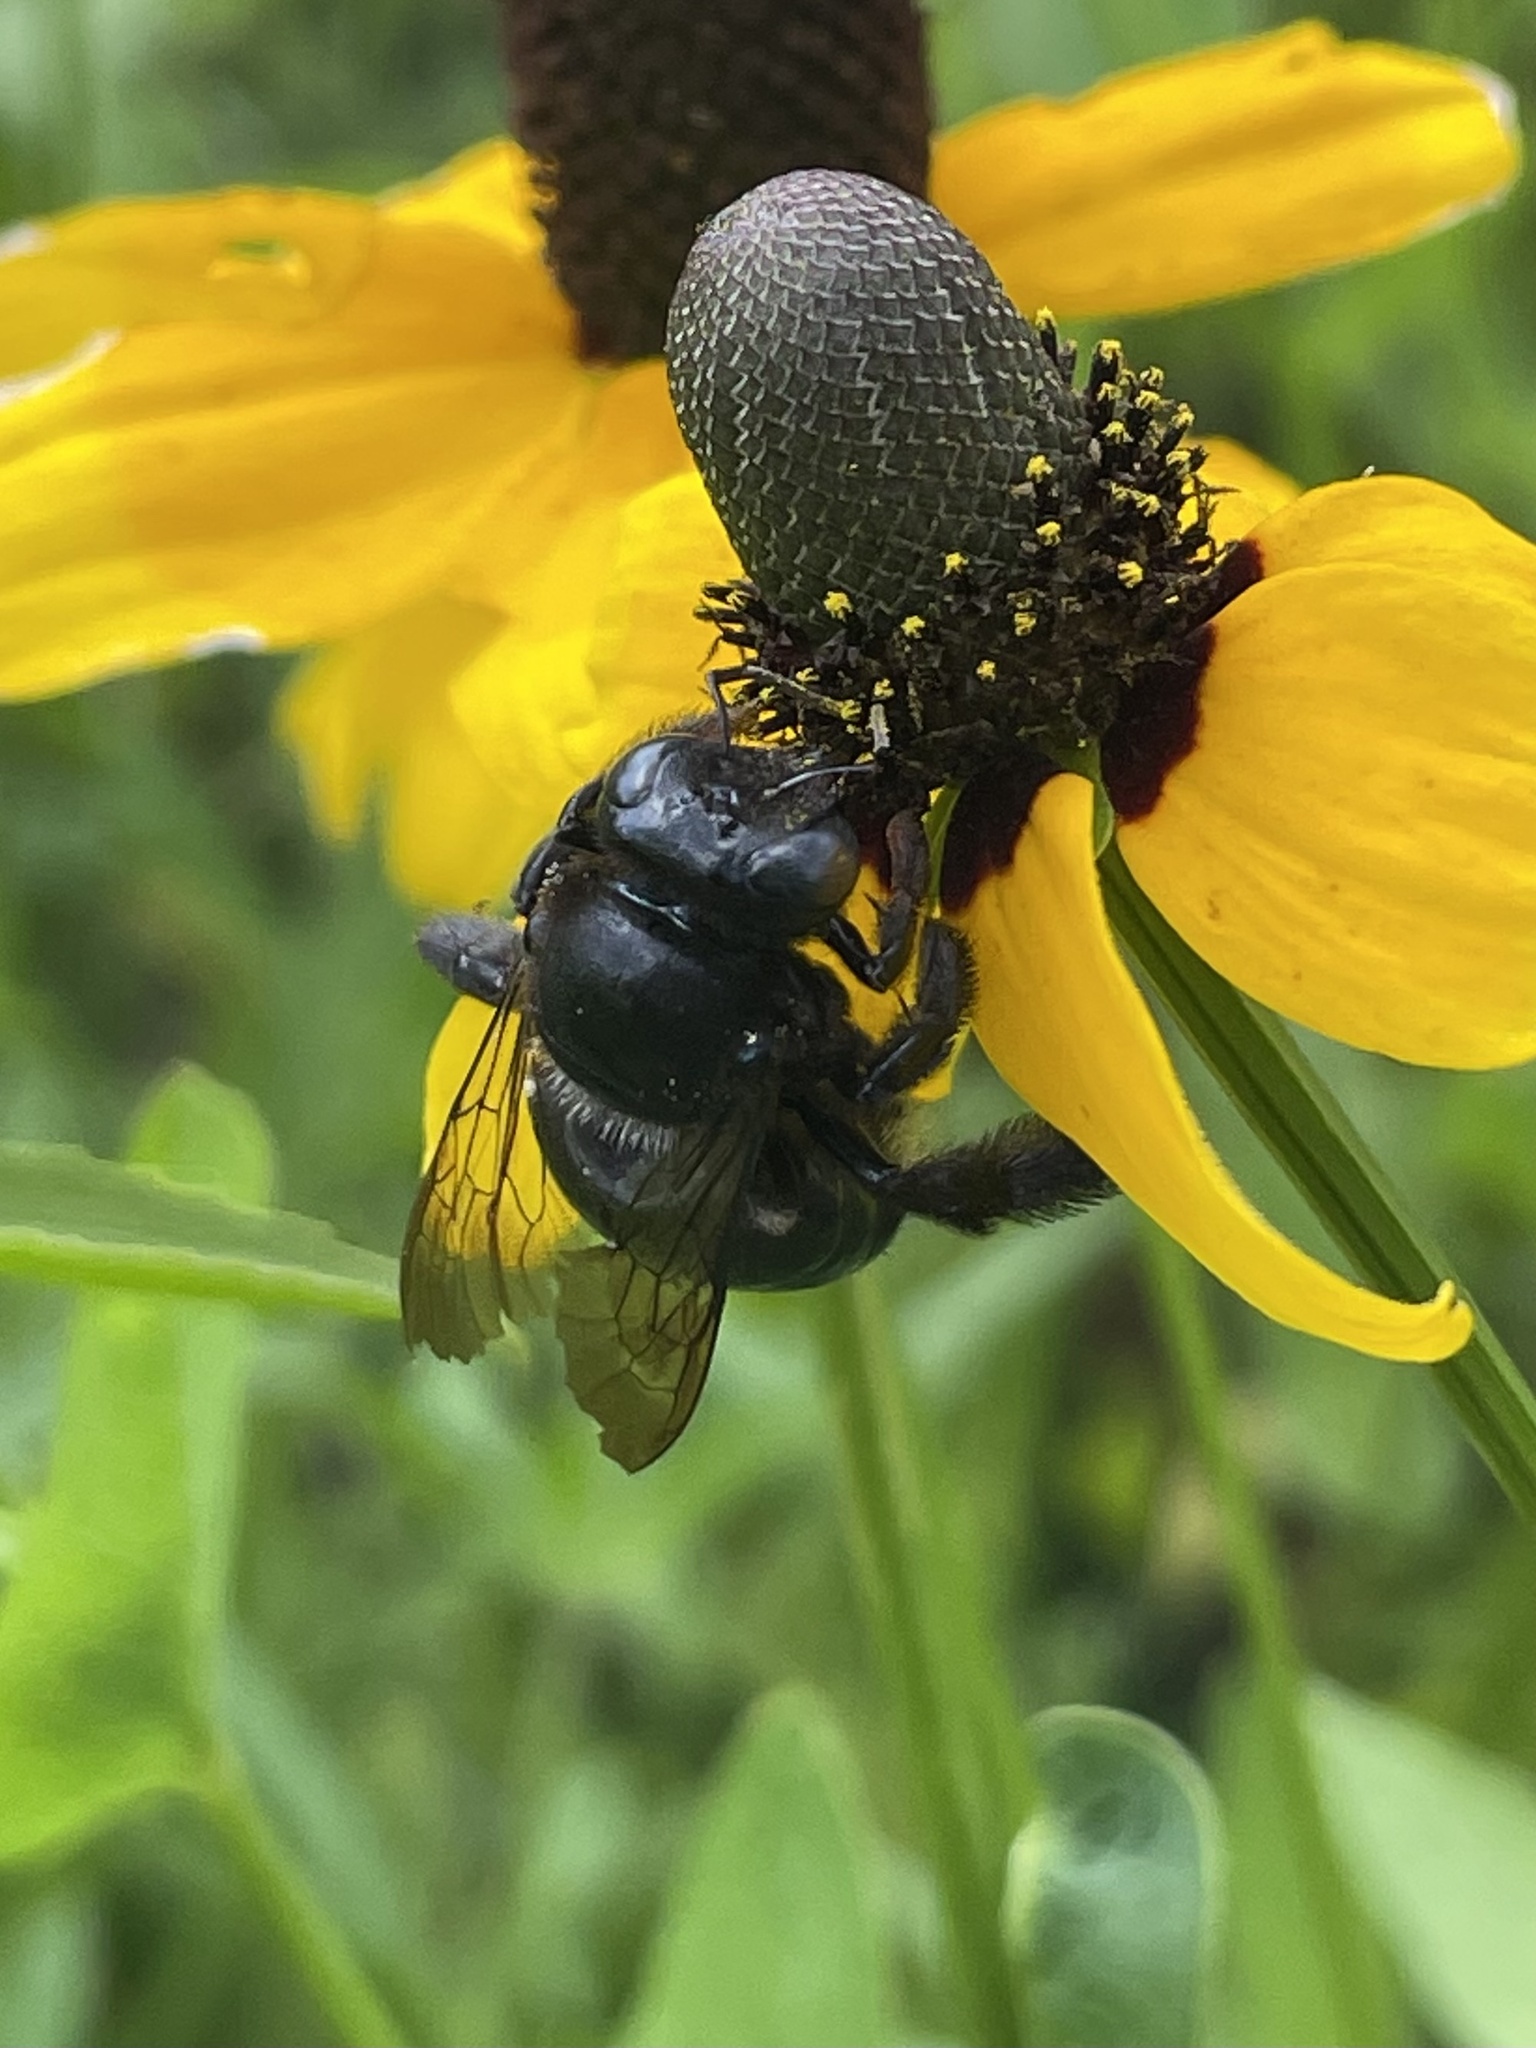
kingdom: Animalia
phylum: Arthropoda
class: Insecta
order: Hymenoptera
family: Apidae
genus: Xylocopa
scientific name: Xylocopa micans
